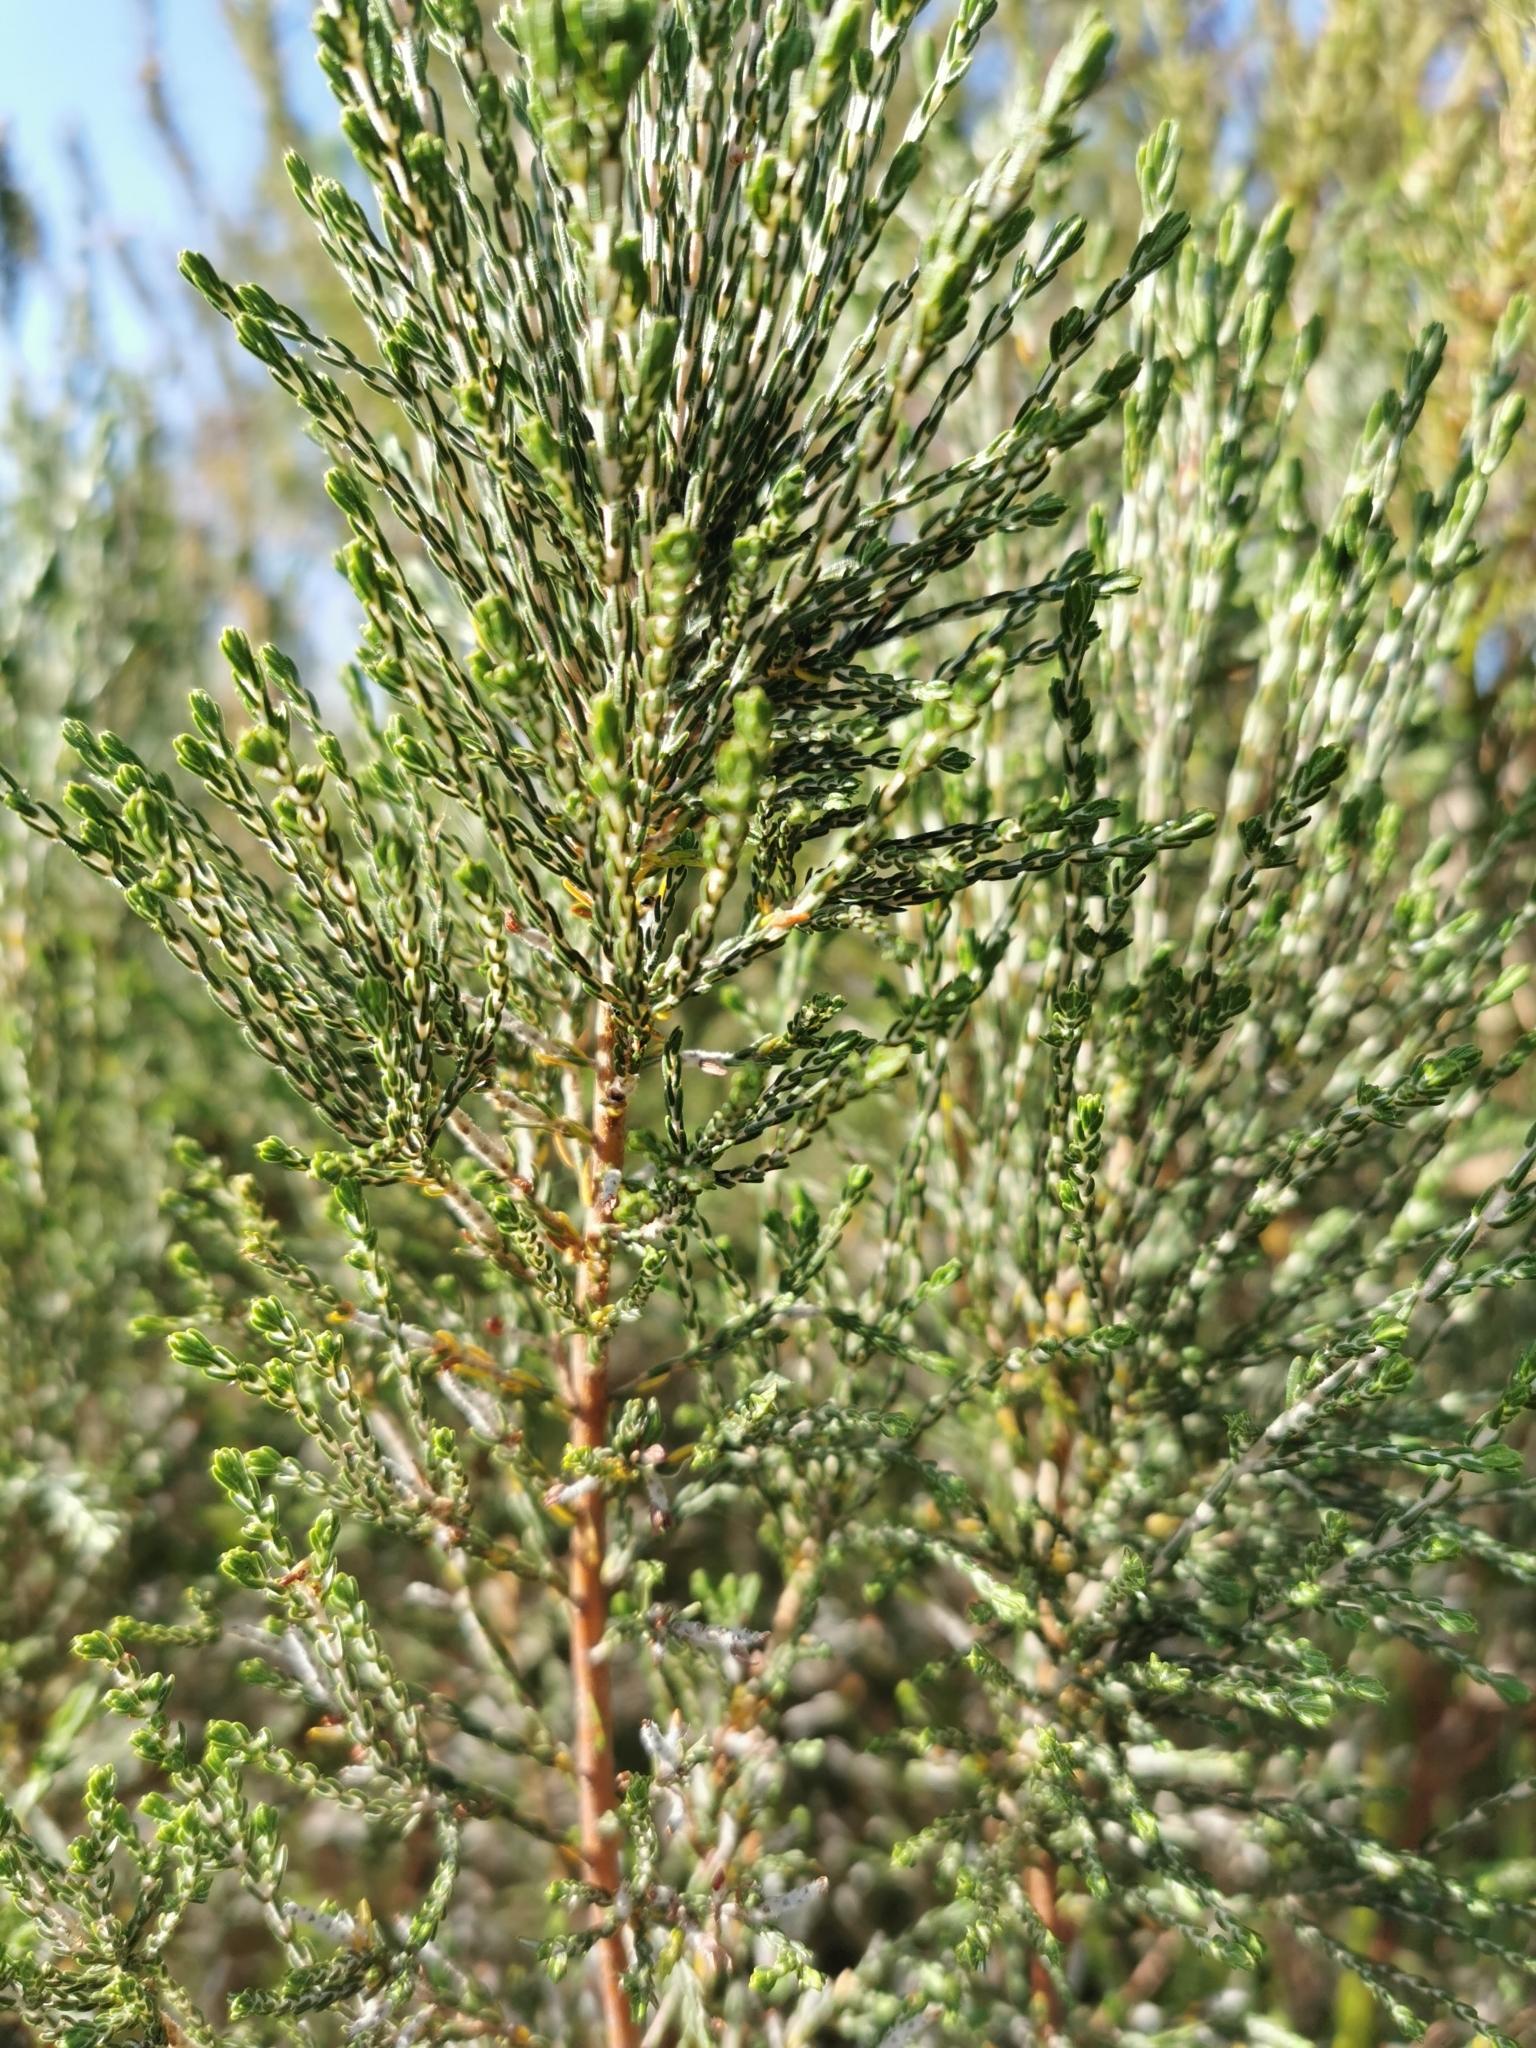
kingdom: Plantae
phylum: Tracheophyta
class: Magnoliopsida
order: Malvales
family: Thymelaeaceae
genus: Passerina
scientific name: Passerina corymbosa
